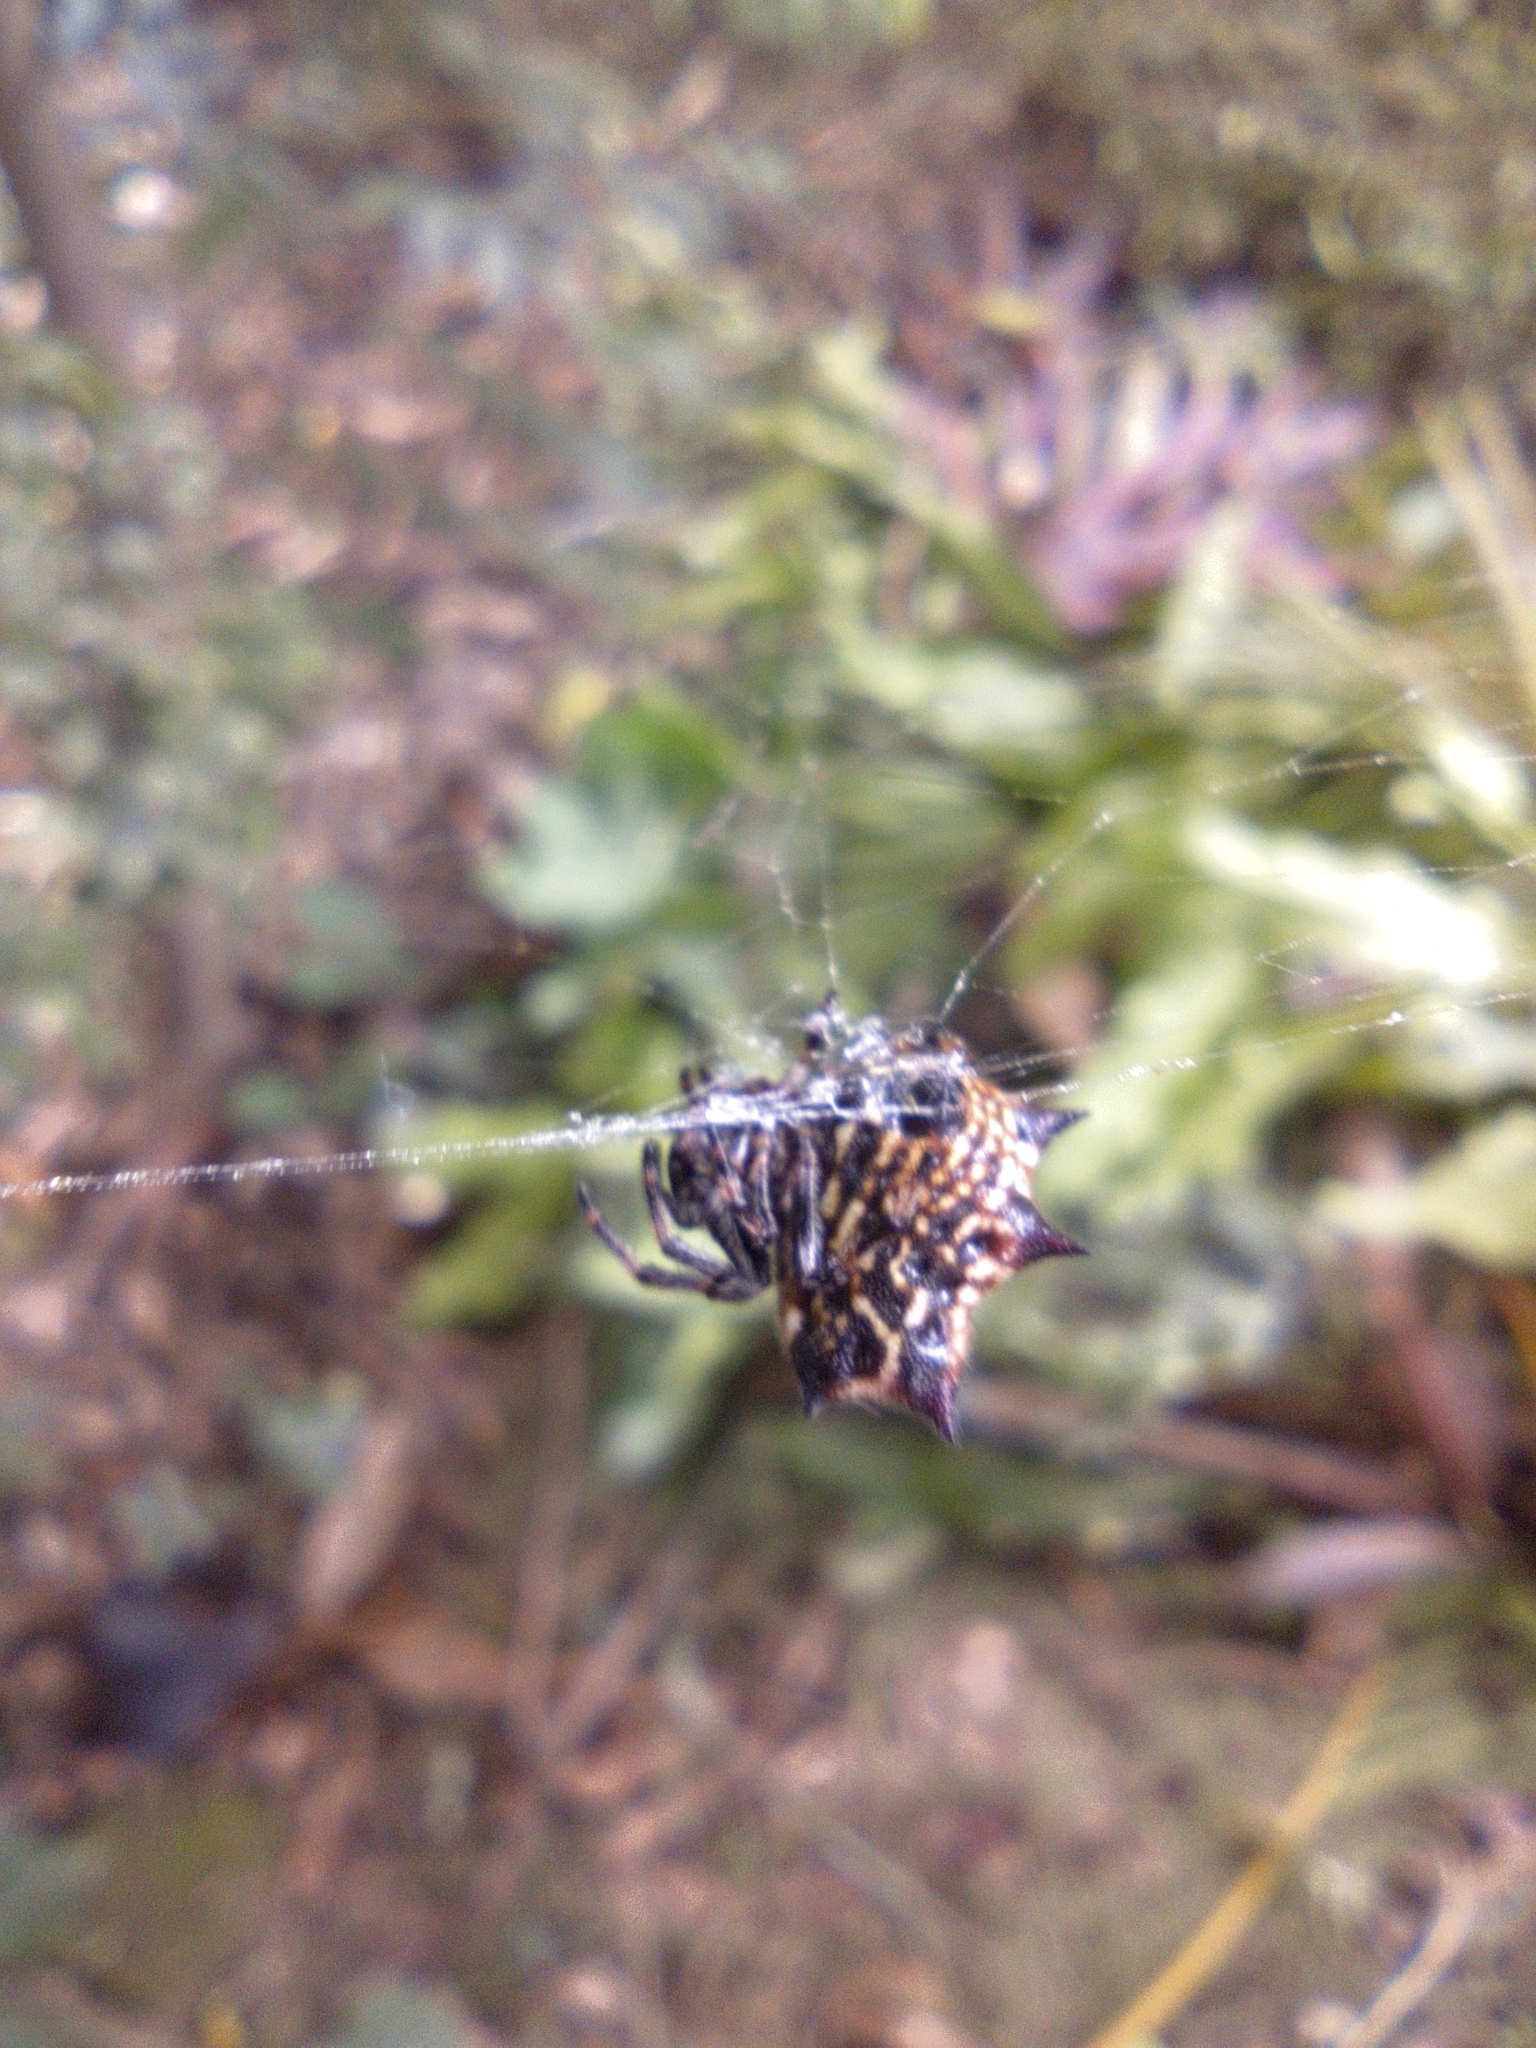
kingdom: Animalia
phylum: Arthropoda
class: Arachnida
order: Araneae
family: Araneidae
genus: Gasteracantha
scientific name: Gasteracantha cancriformis
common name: Orb weavers
